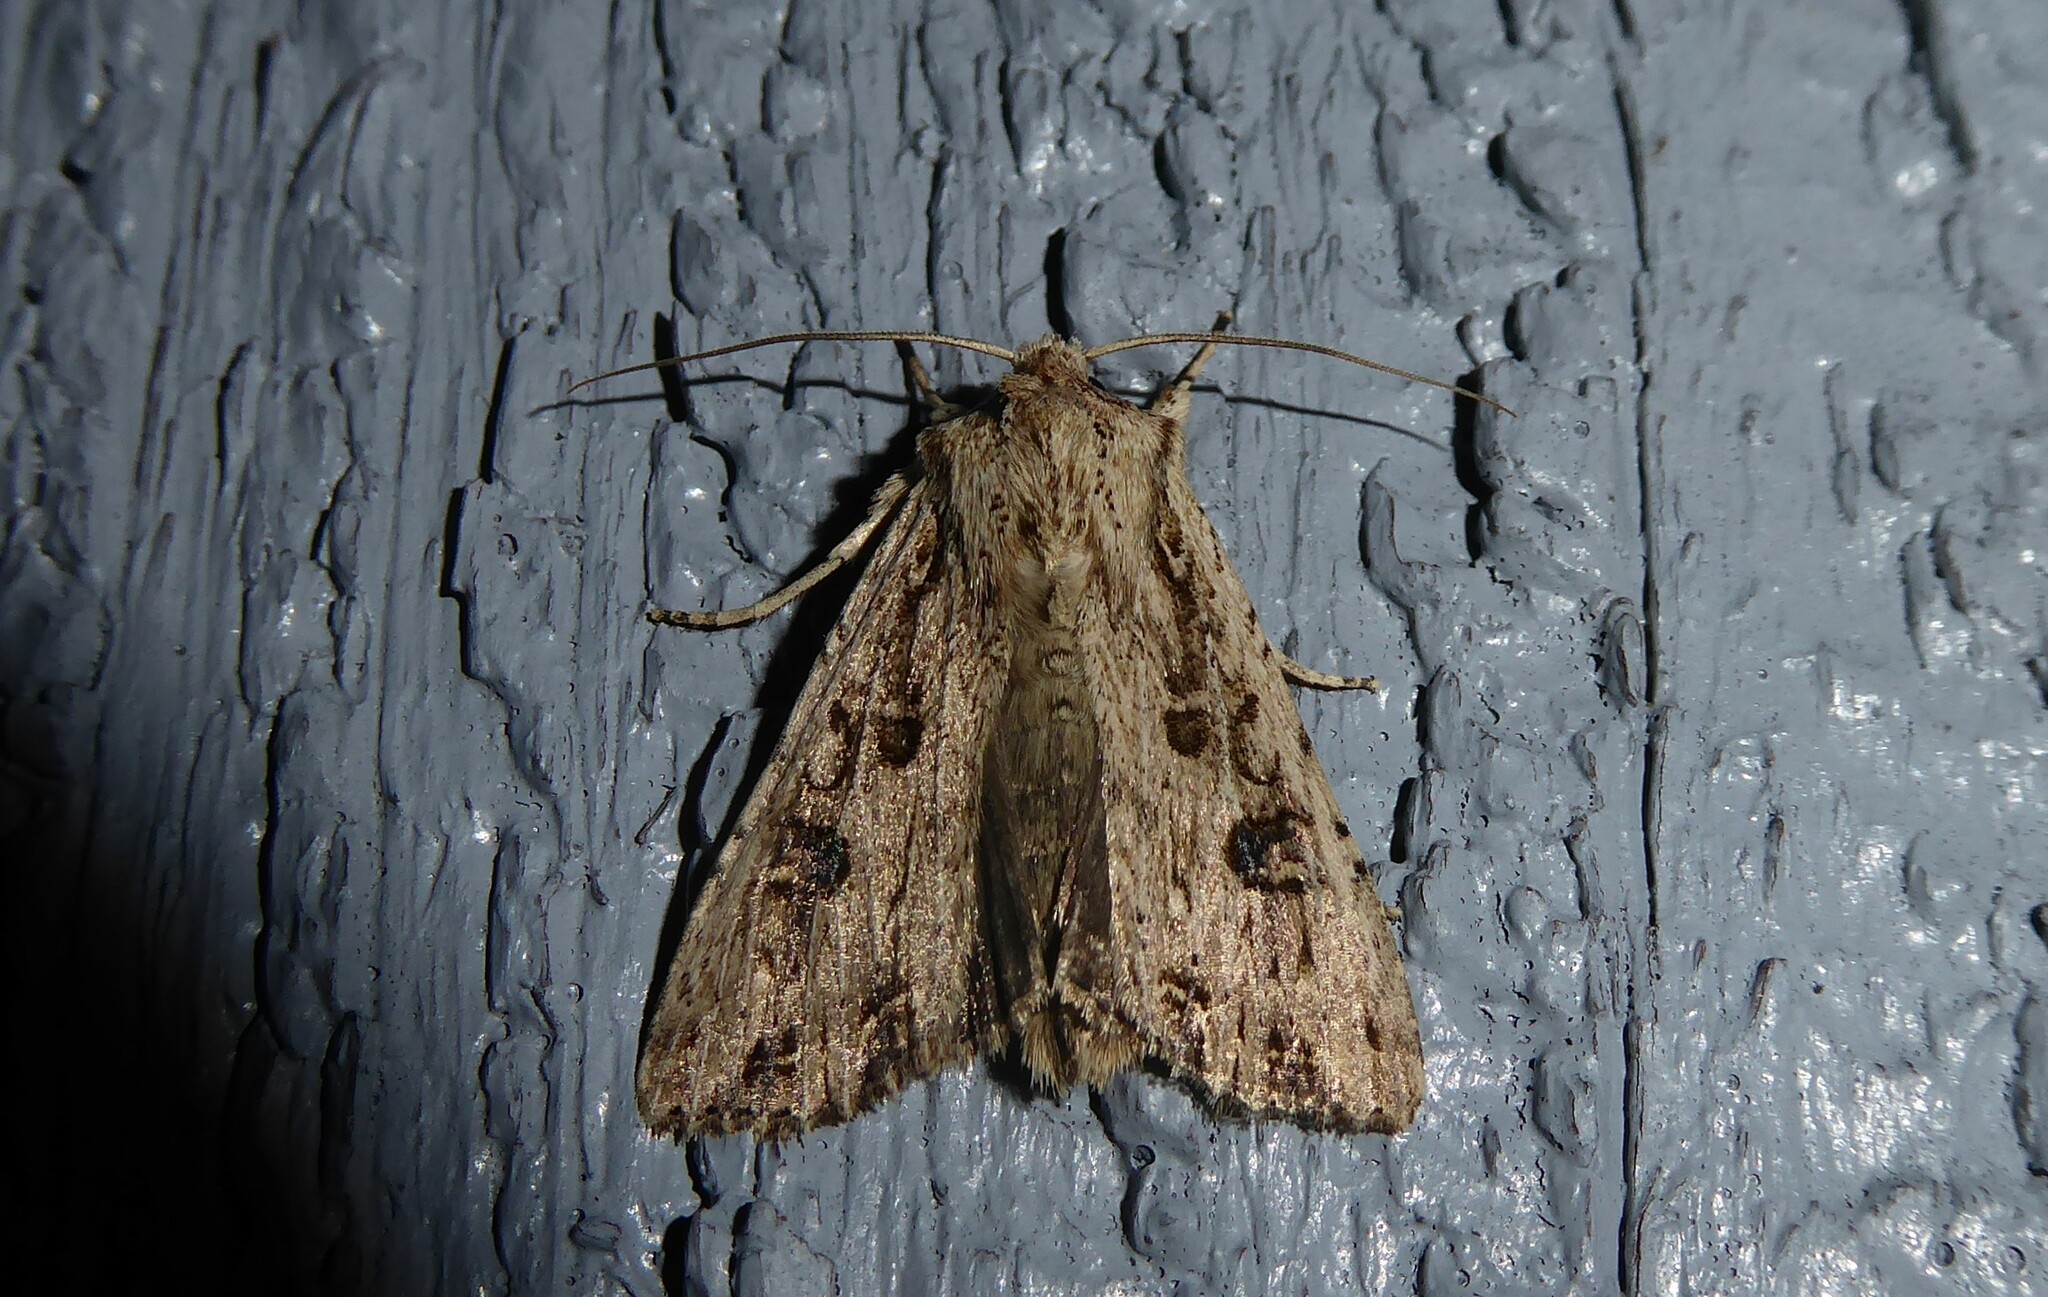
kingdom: Animalia
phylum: Arthropoda
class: Insecta
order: Lepidoptera
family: Noctuidae
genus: Ichneutica
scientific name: Ichneutica lignana
